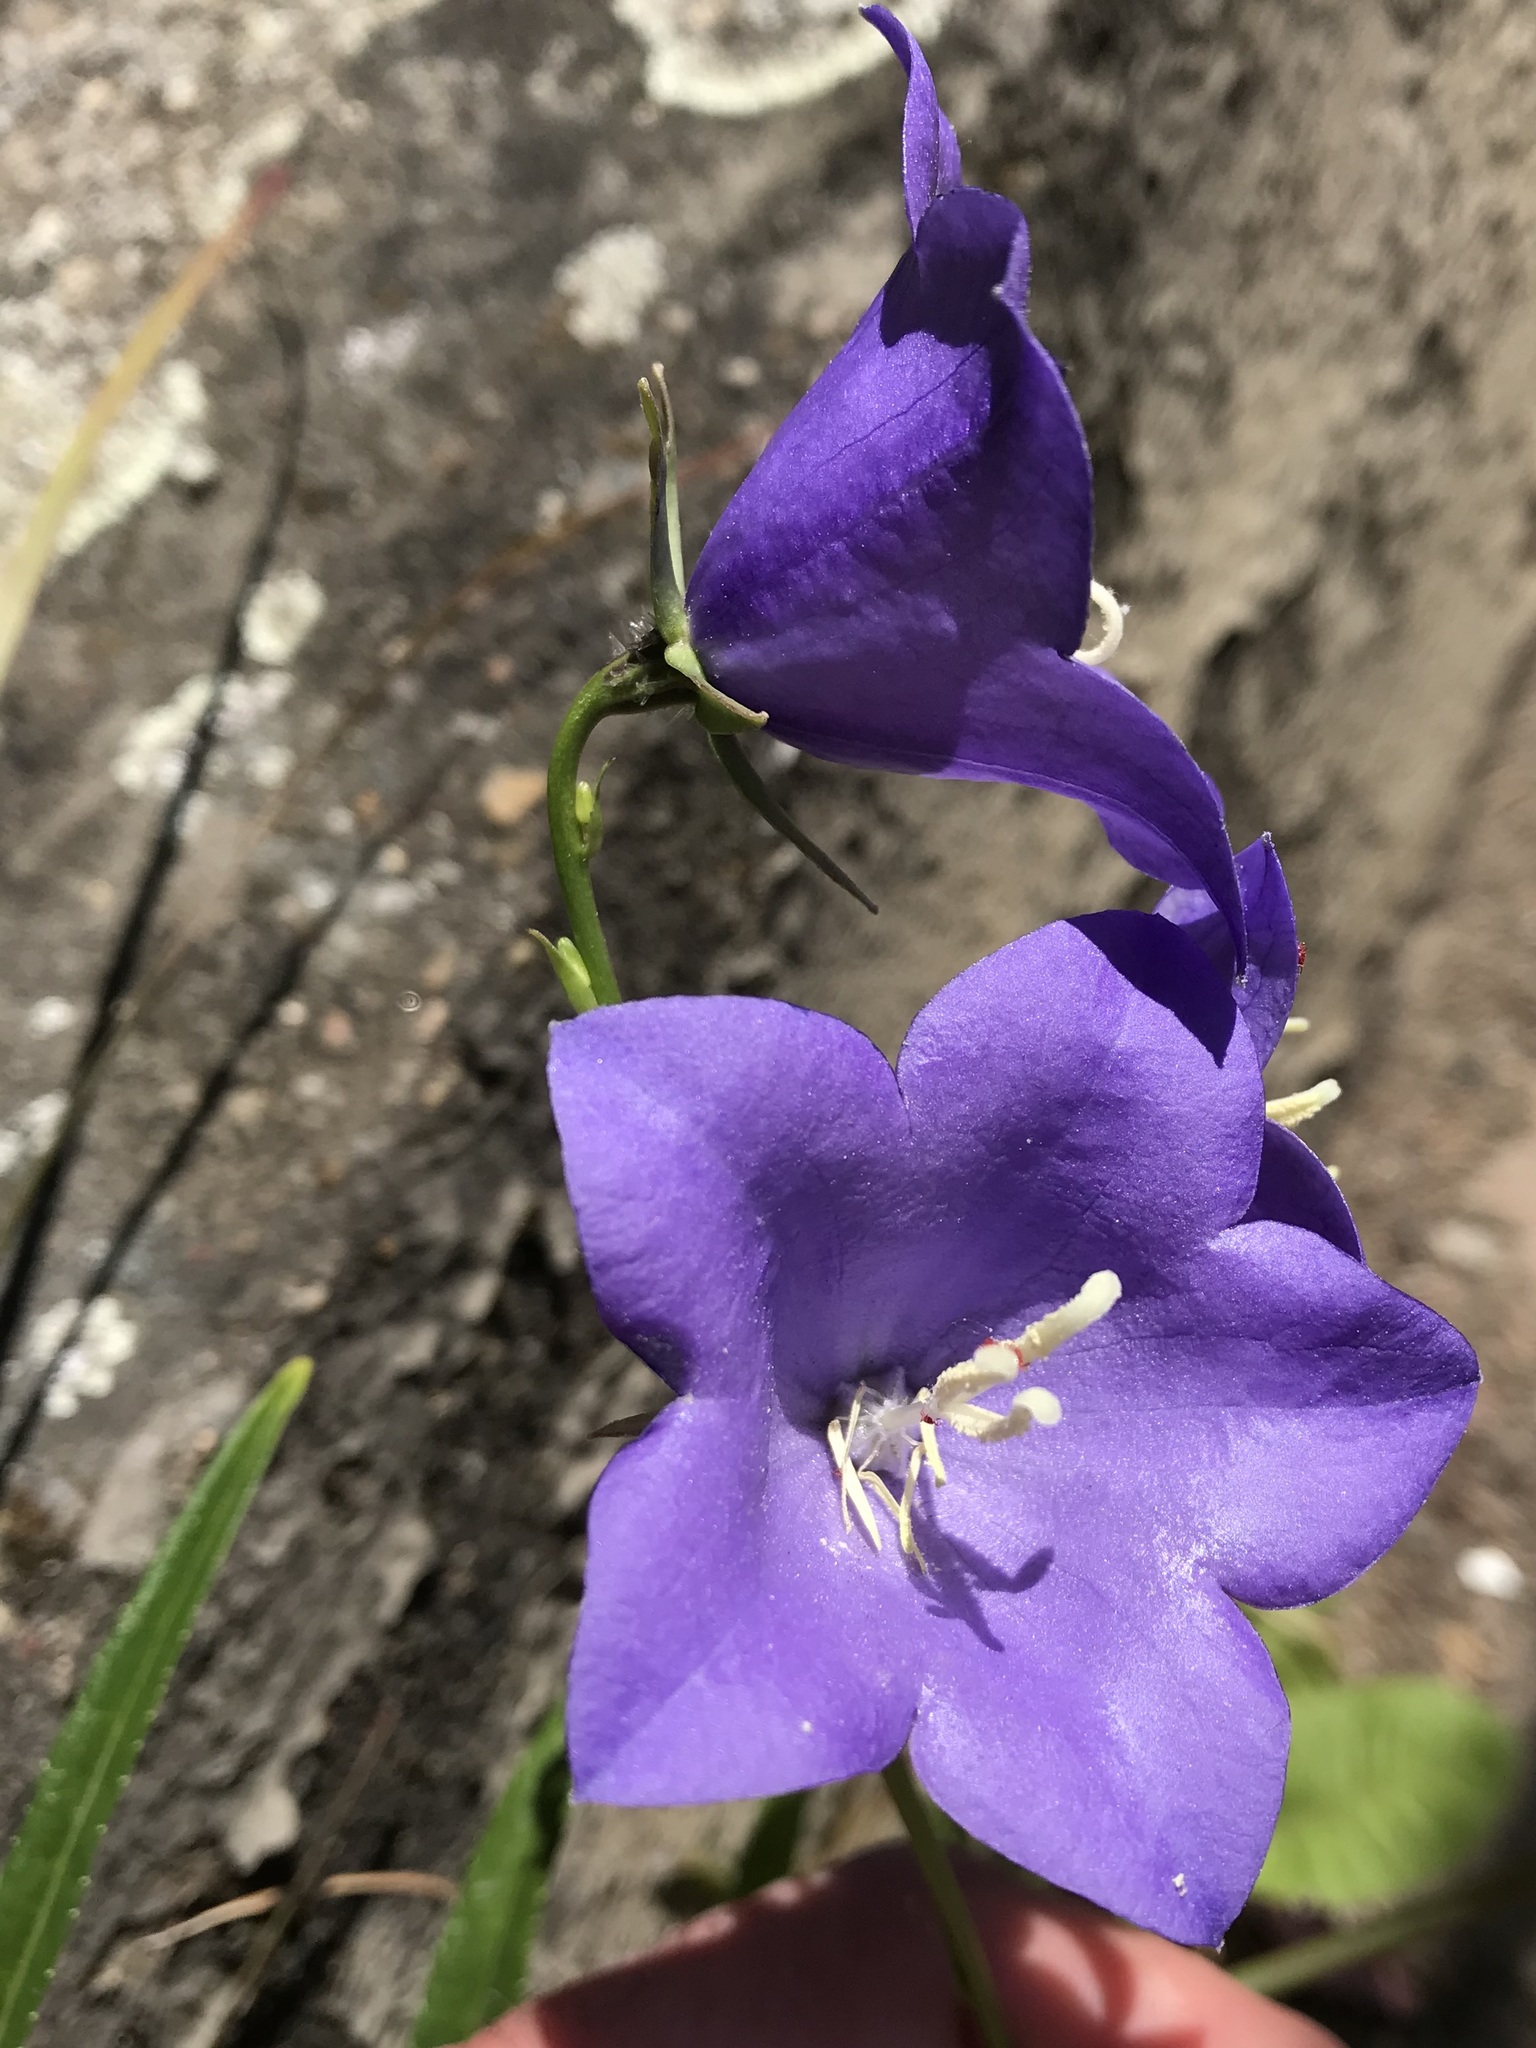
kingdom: Plantae
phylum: Tracheophyta
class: Magnoliopsida
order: Asterales
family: Campanulaceae
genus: Campanula
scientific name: Campanula persicifolia
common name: Peach-leaved bellflower
